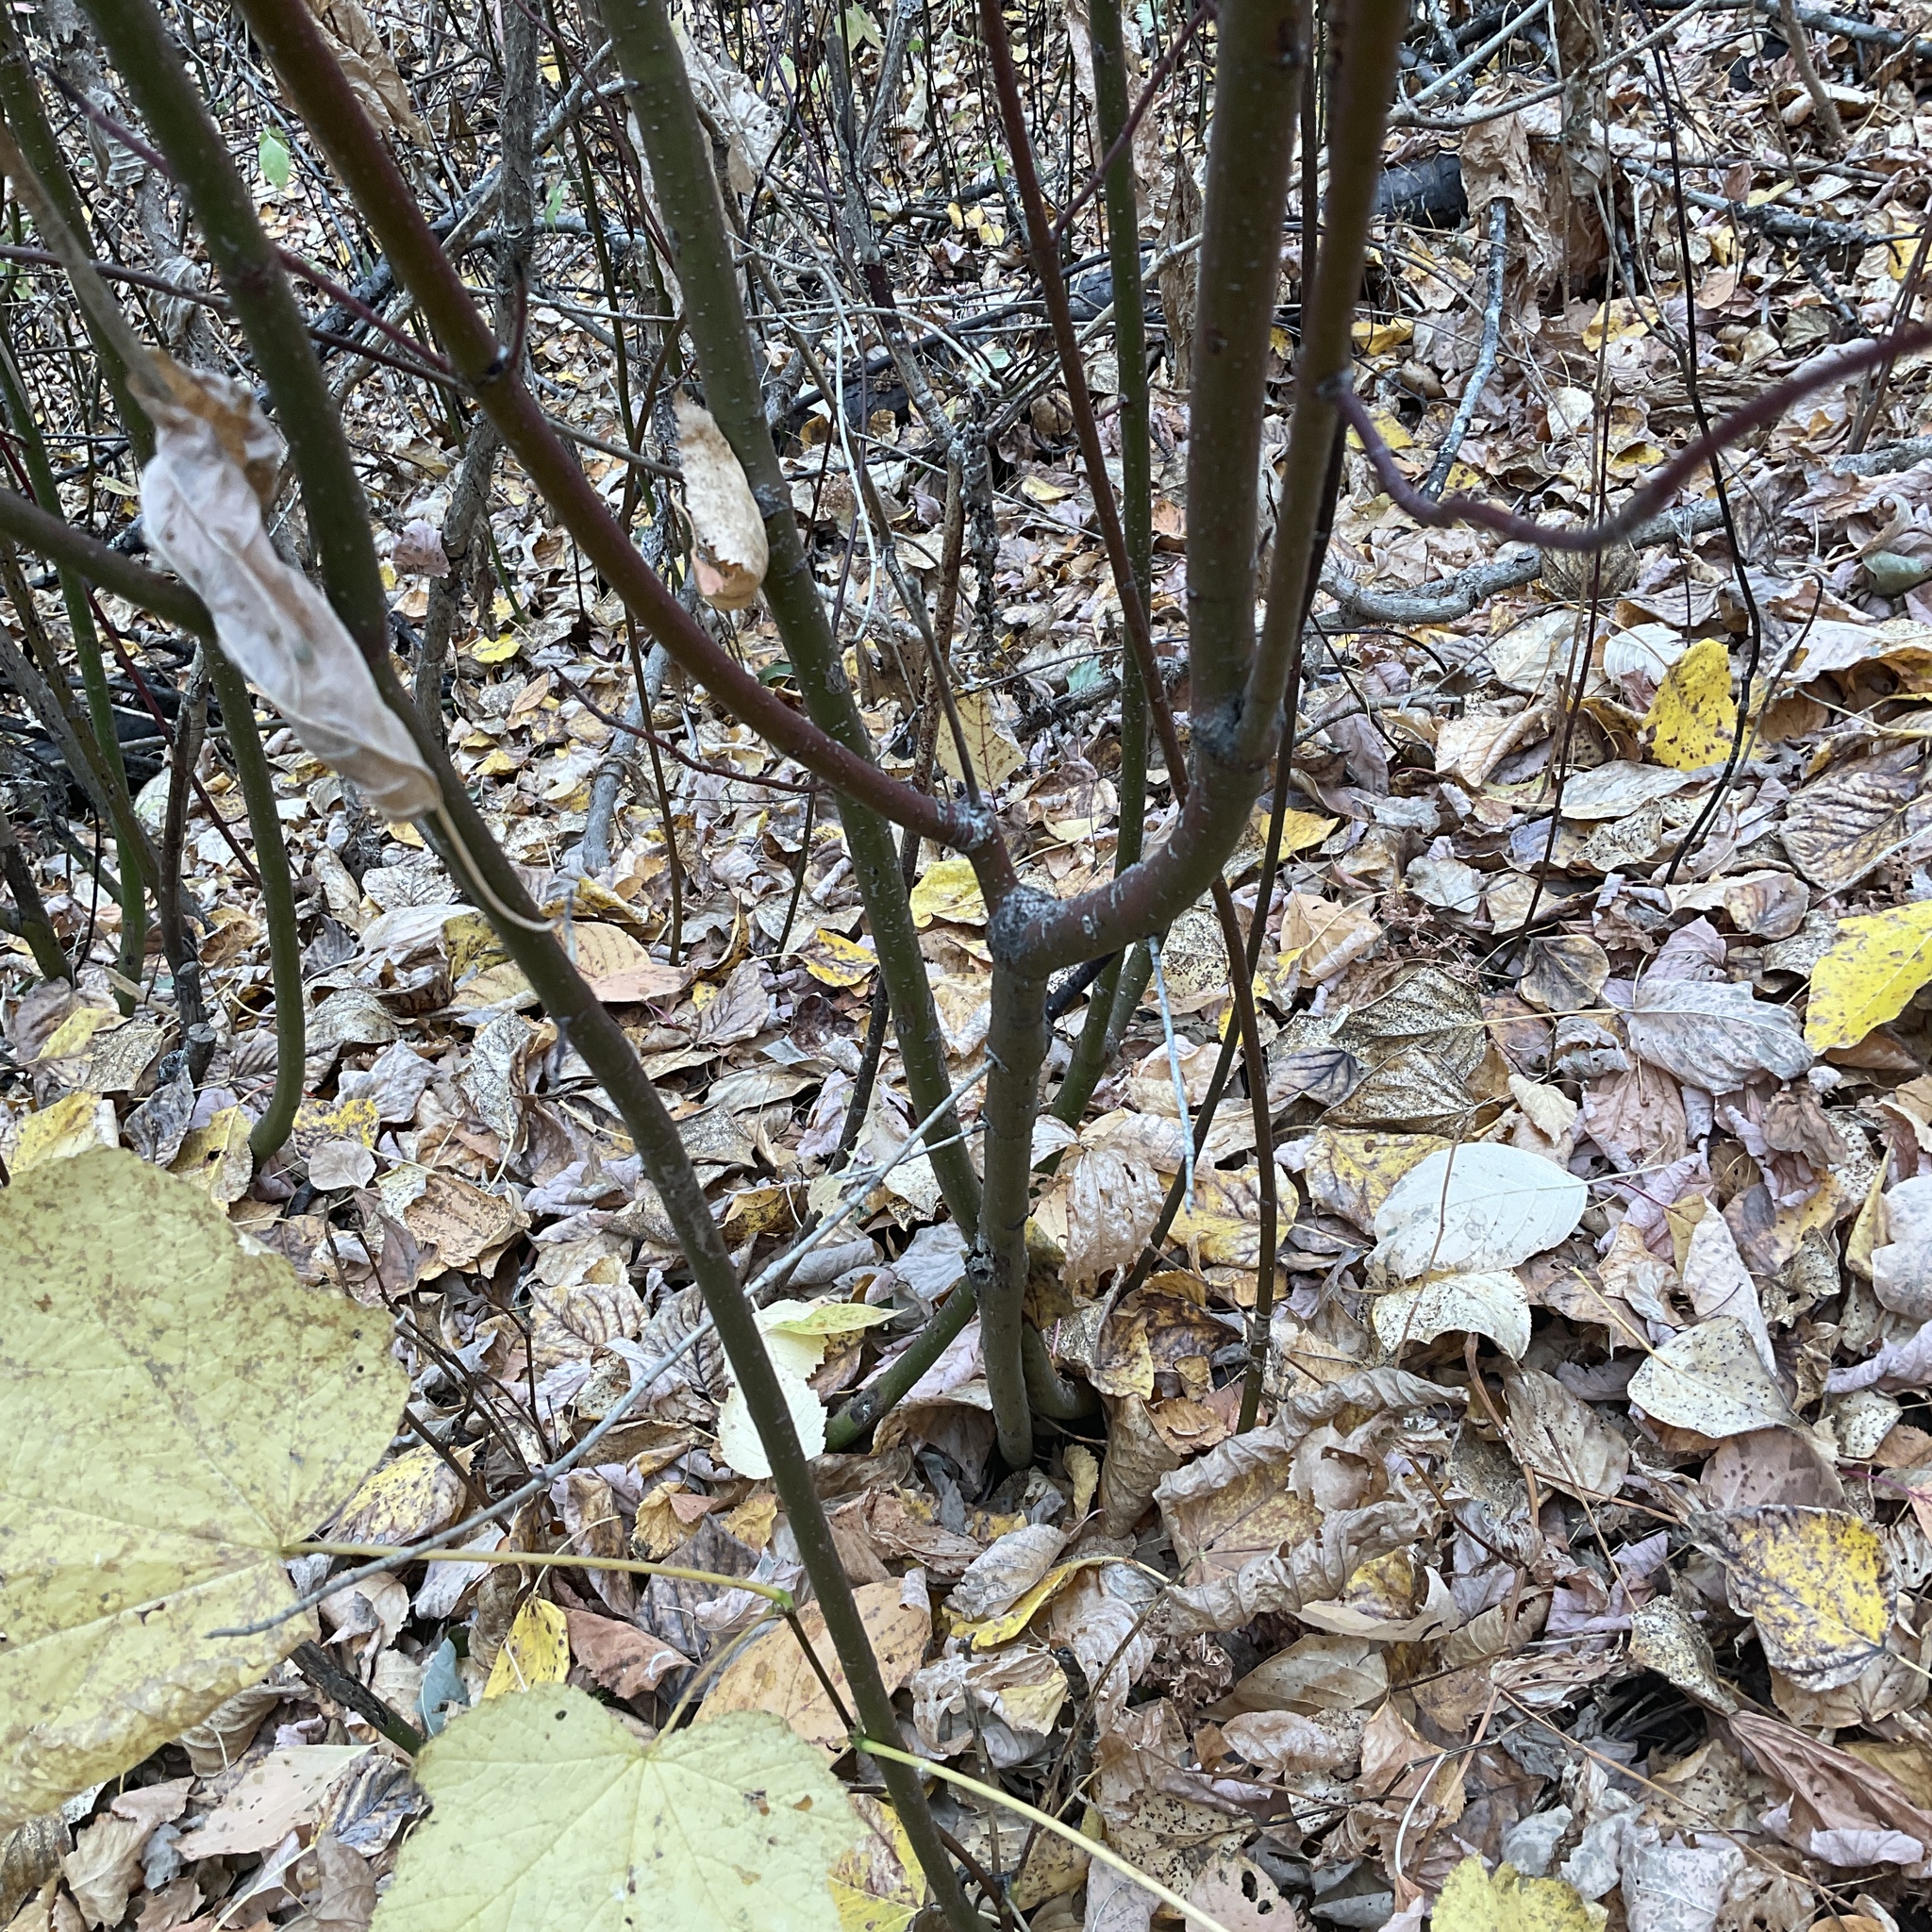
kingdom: Plantae
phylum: Tracheophyta
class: Magnoliopsida
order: Cornales
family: Cornaceae
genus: Cornus
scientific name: Cornus sericea
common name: Red-osier dogwood
